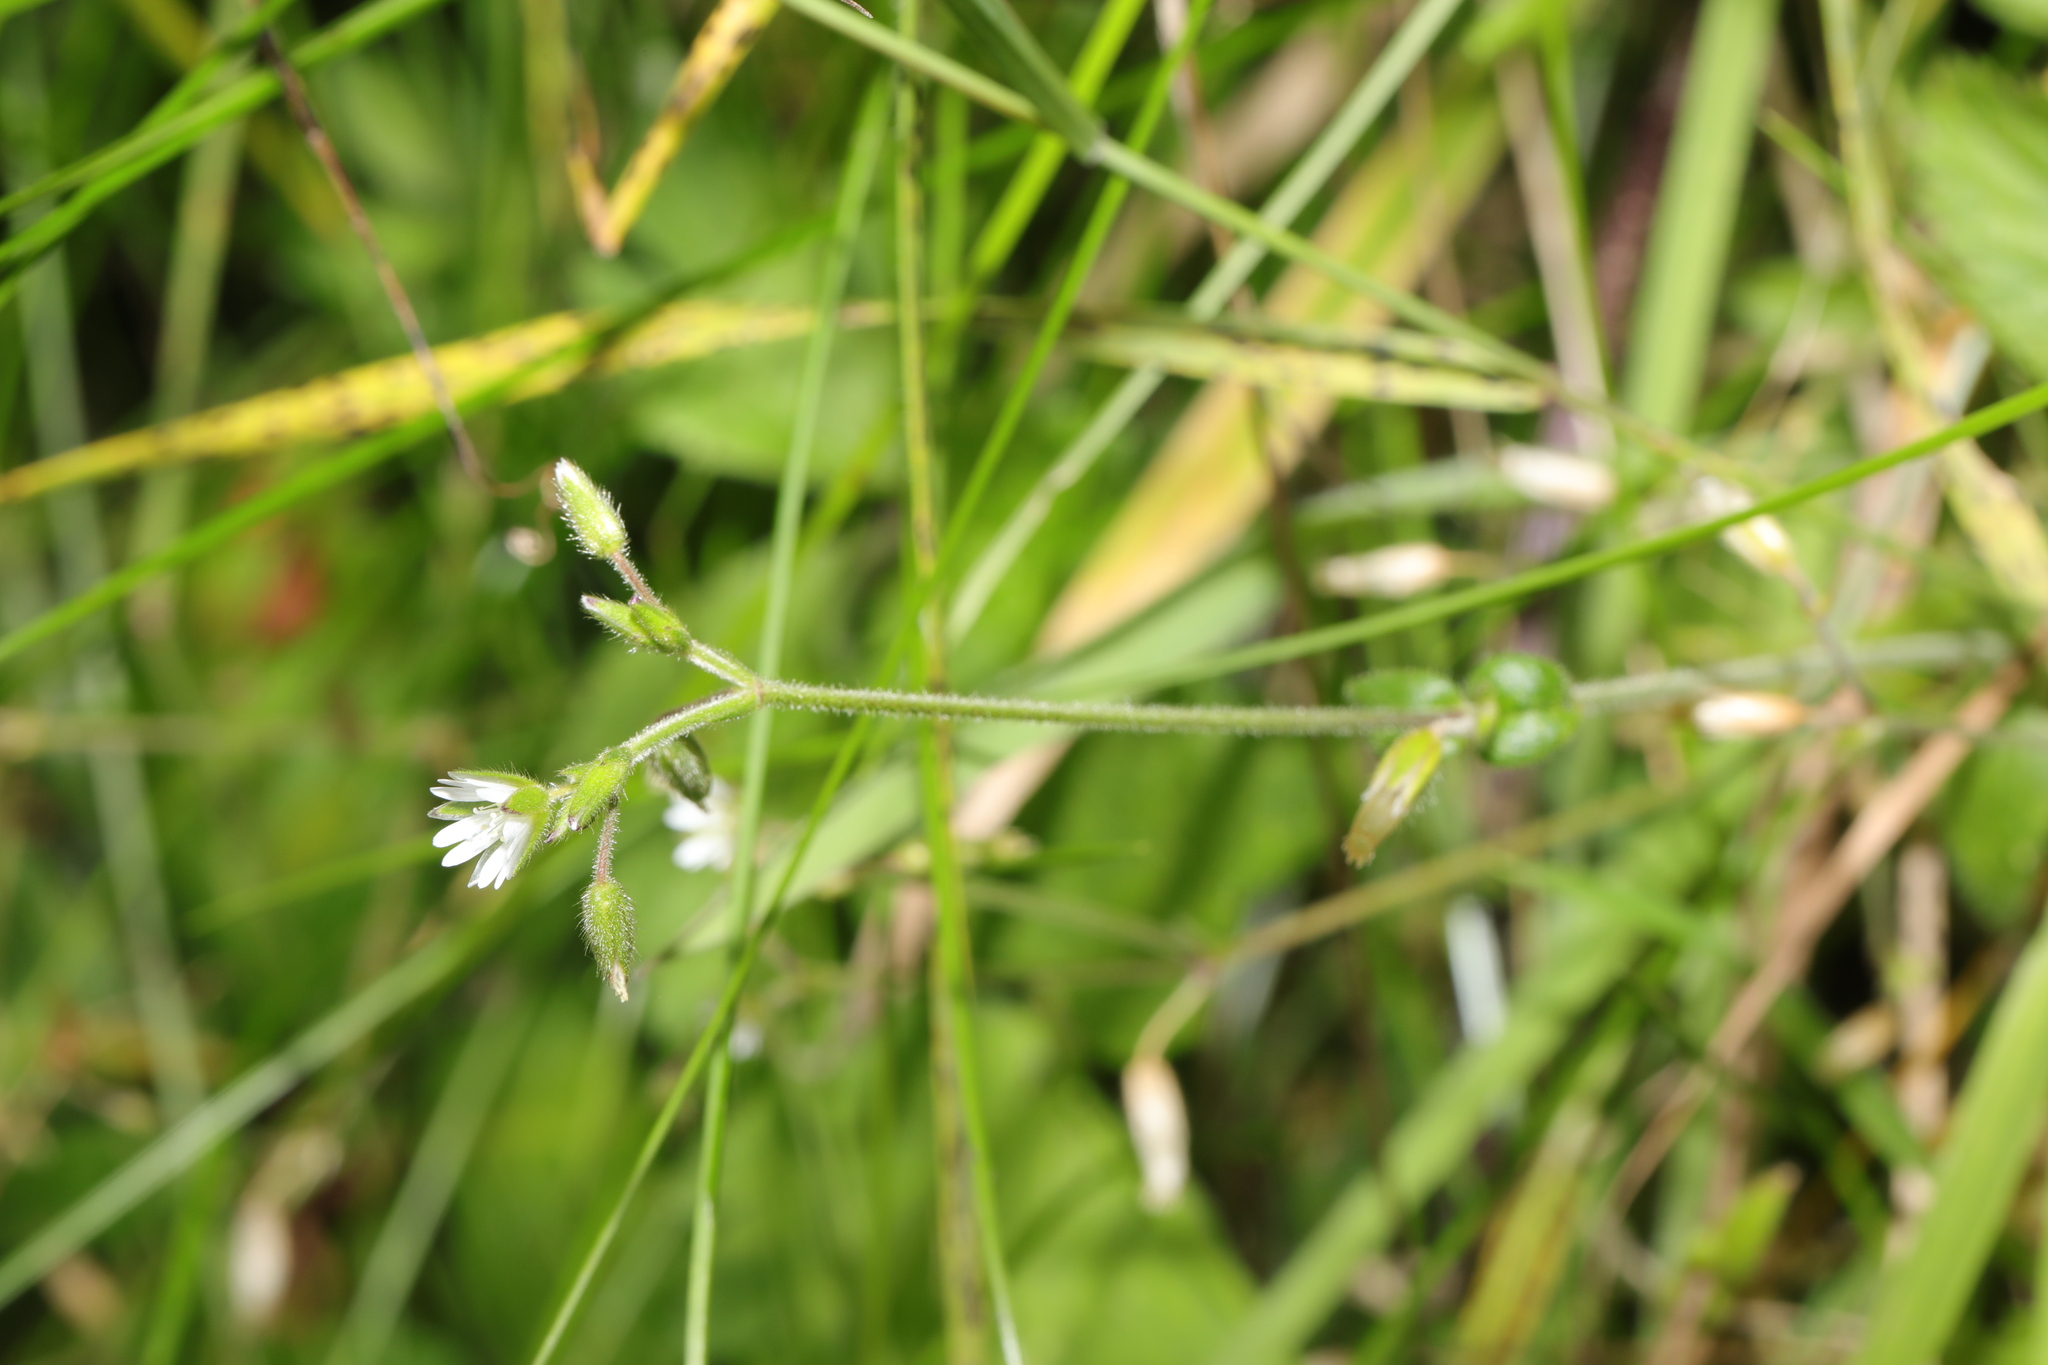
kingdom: Plantae
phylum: Tracheophyta
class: Magnoliopsida
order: Caryophyllales
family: Caryophyllaceae
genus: Cerastium
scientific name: Cerastium fontanum
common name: Common mouse-ear
